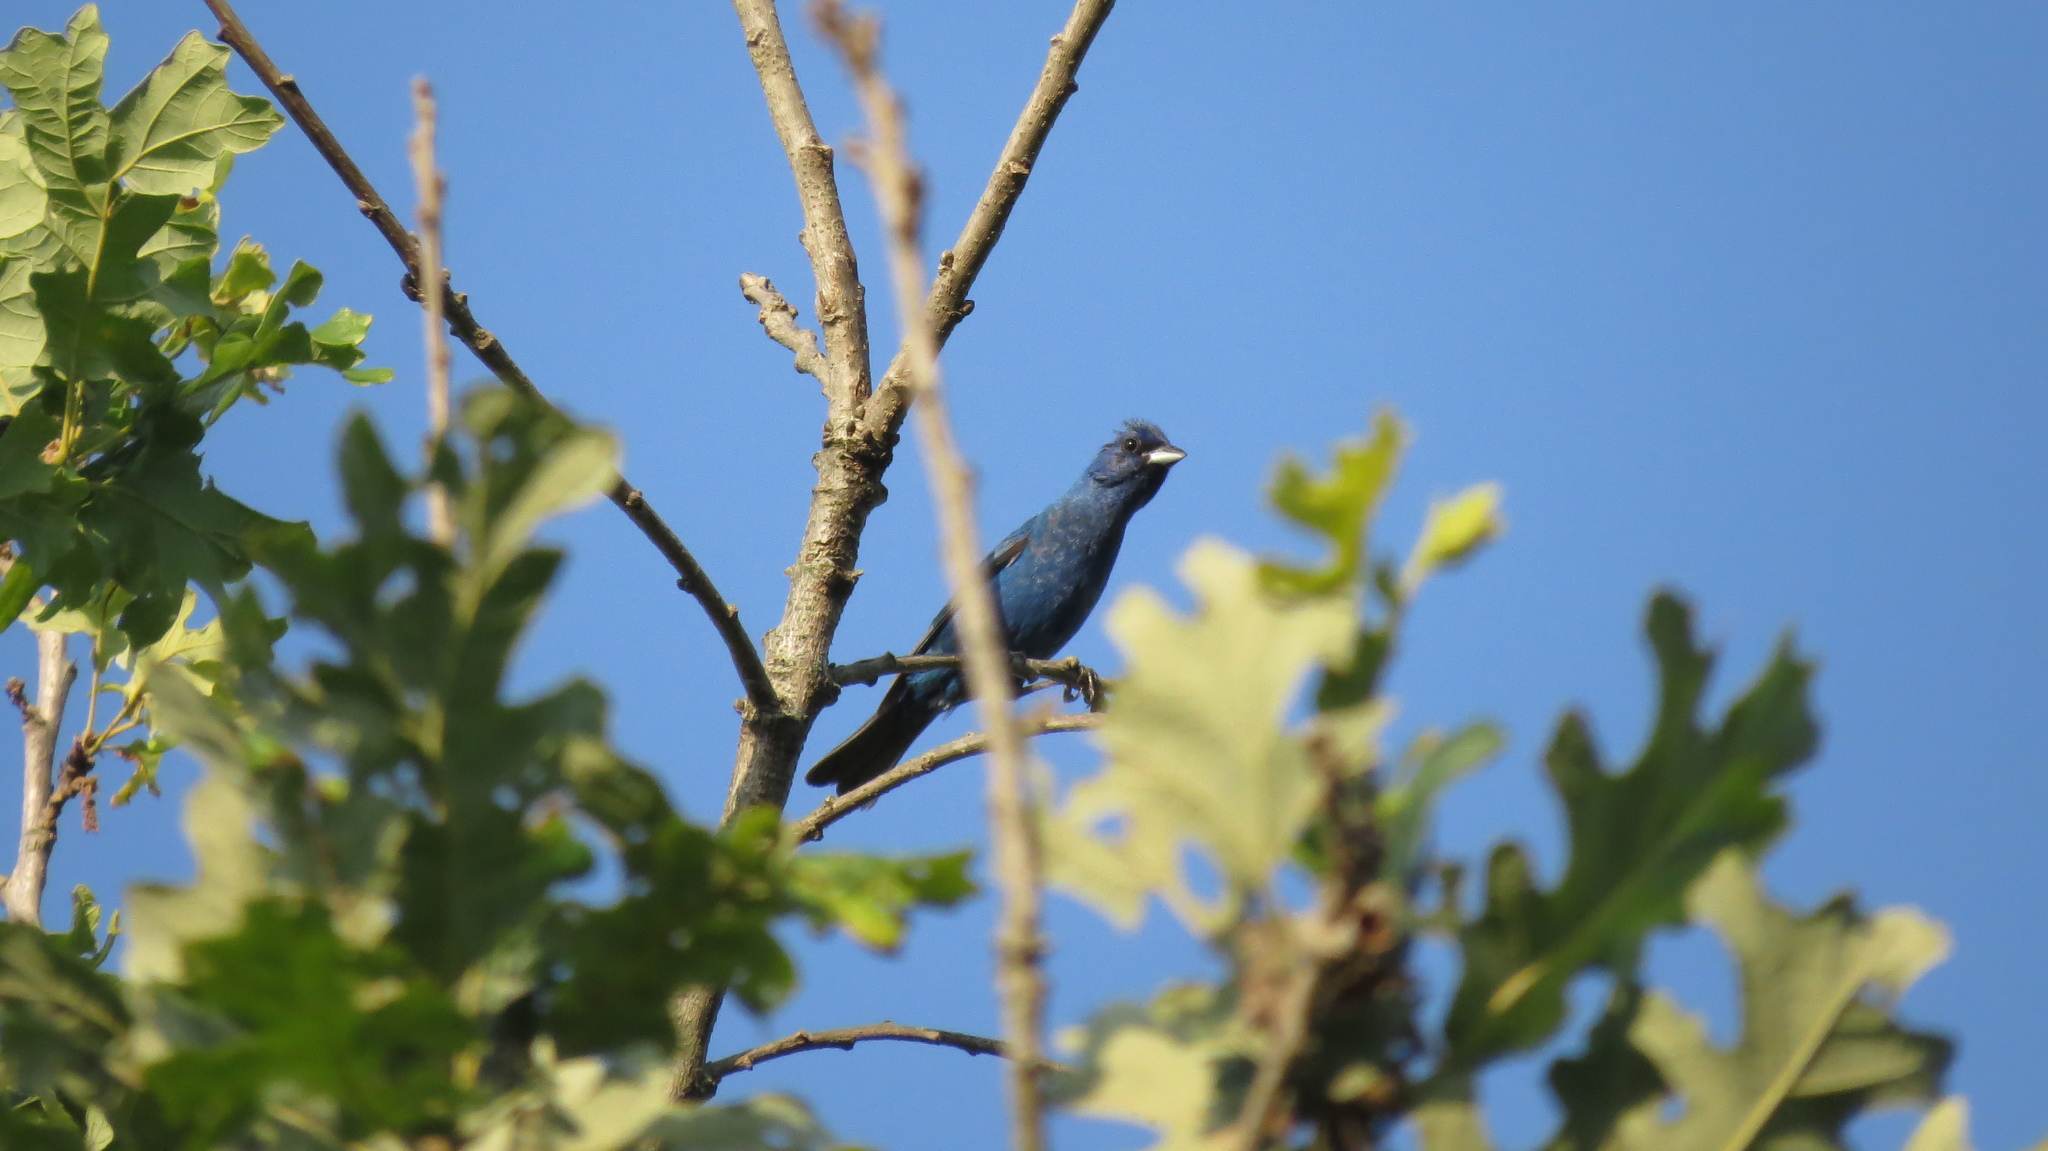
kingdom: Animalia
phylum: Chordata
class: Aves
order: Passeriformes
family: Cardinalidae
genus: Passerina
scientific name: Passerina cyanea
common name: Indigo bunting
